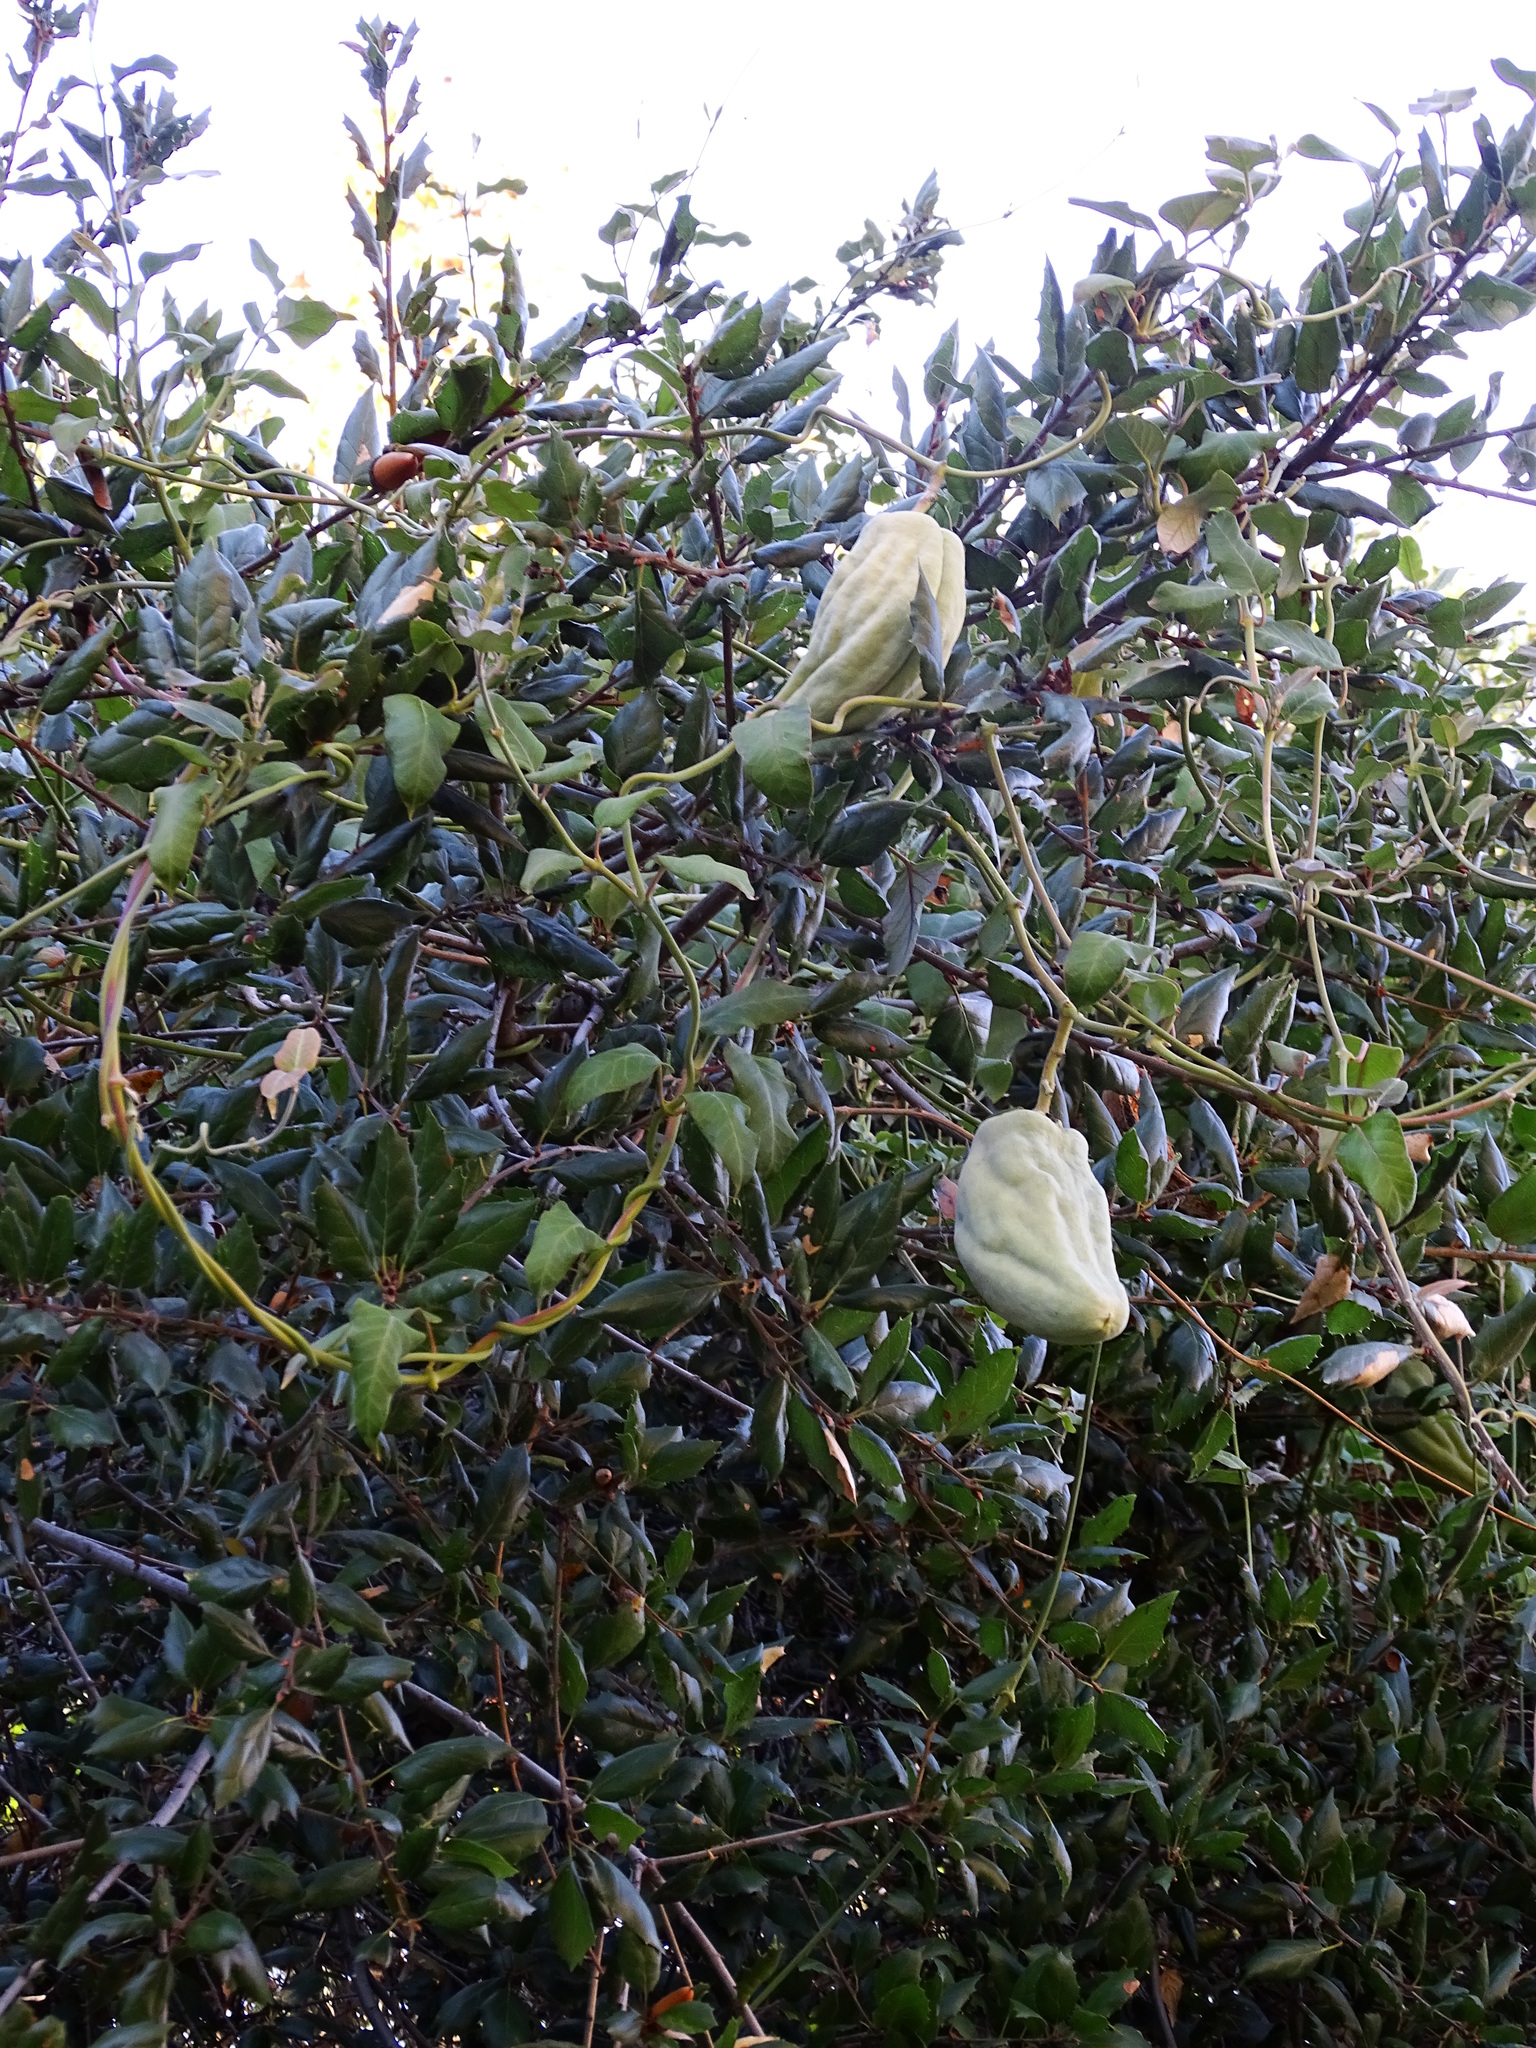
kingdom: Plantae
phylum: Tracheophyta
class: Magnoliopsida
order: Gentianales
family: Apocynaceae
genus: Araujia
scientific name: Araujia sericifera
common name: White bladderflower
